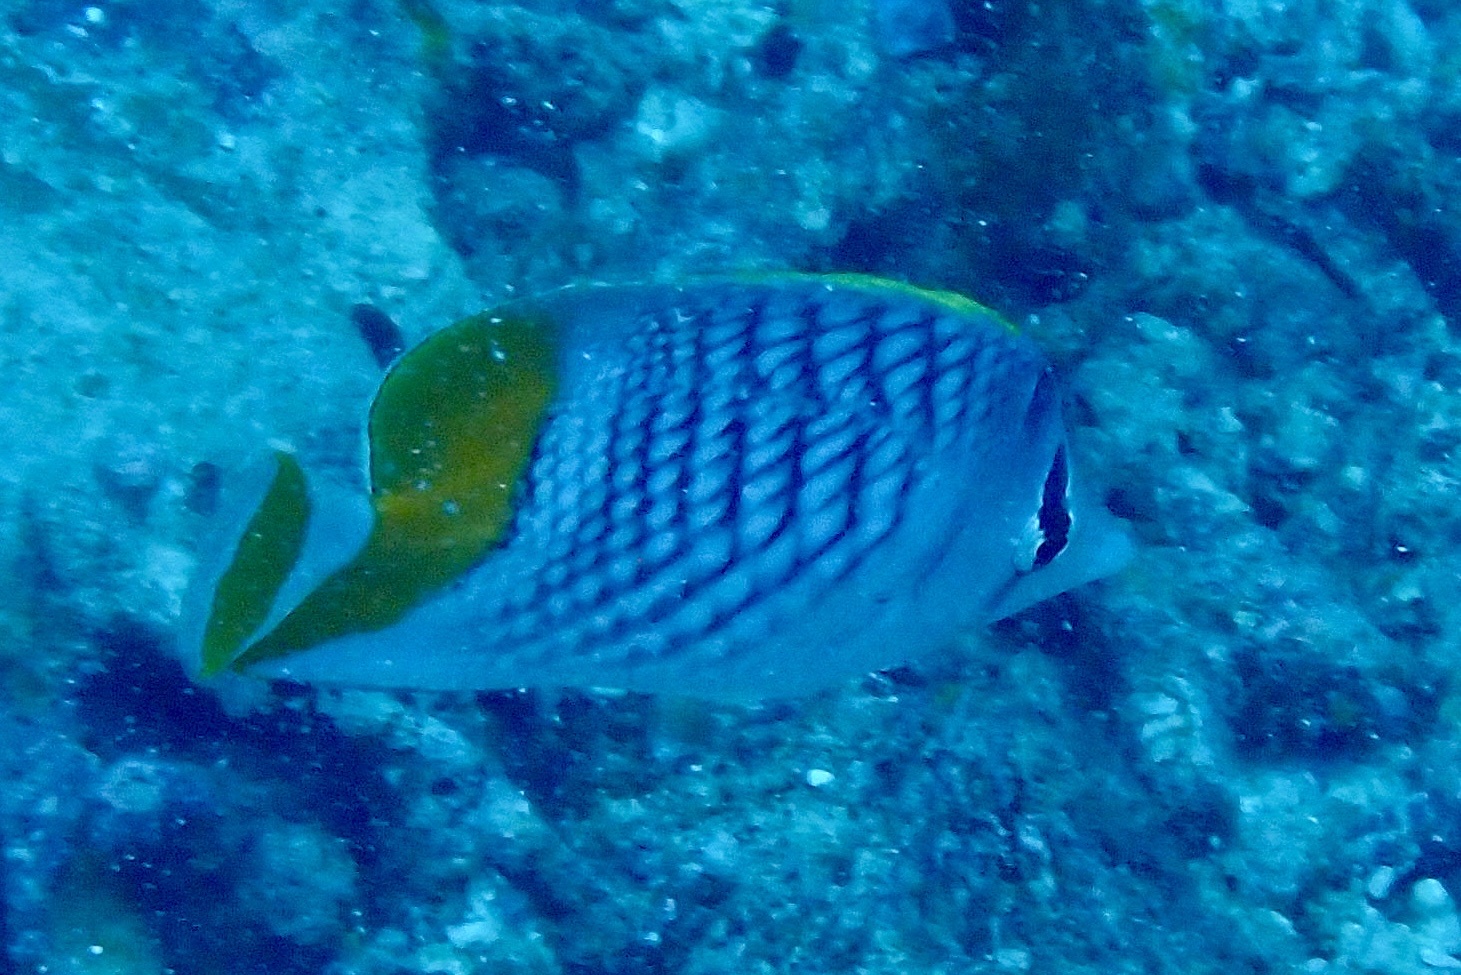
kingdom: Animalia
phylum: Chordata
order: Perciformes
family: Chaetodontidae
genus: Chaetodon
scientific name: Chaetodon xanthurus
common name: Philippine chevron butterflyfish
